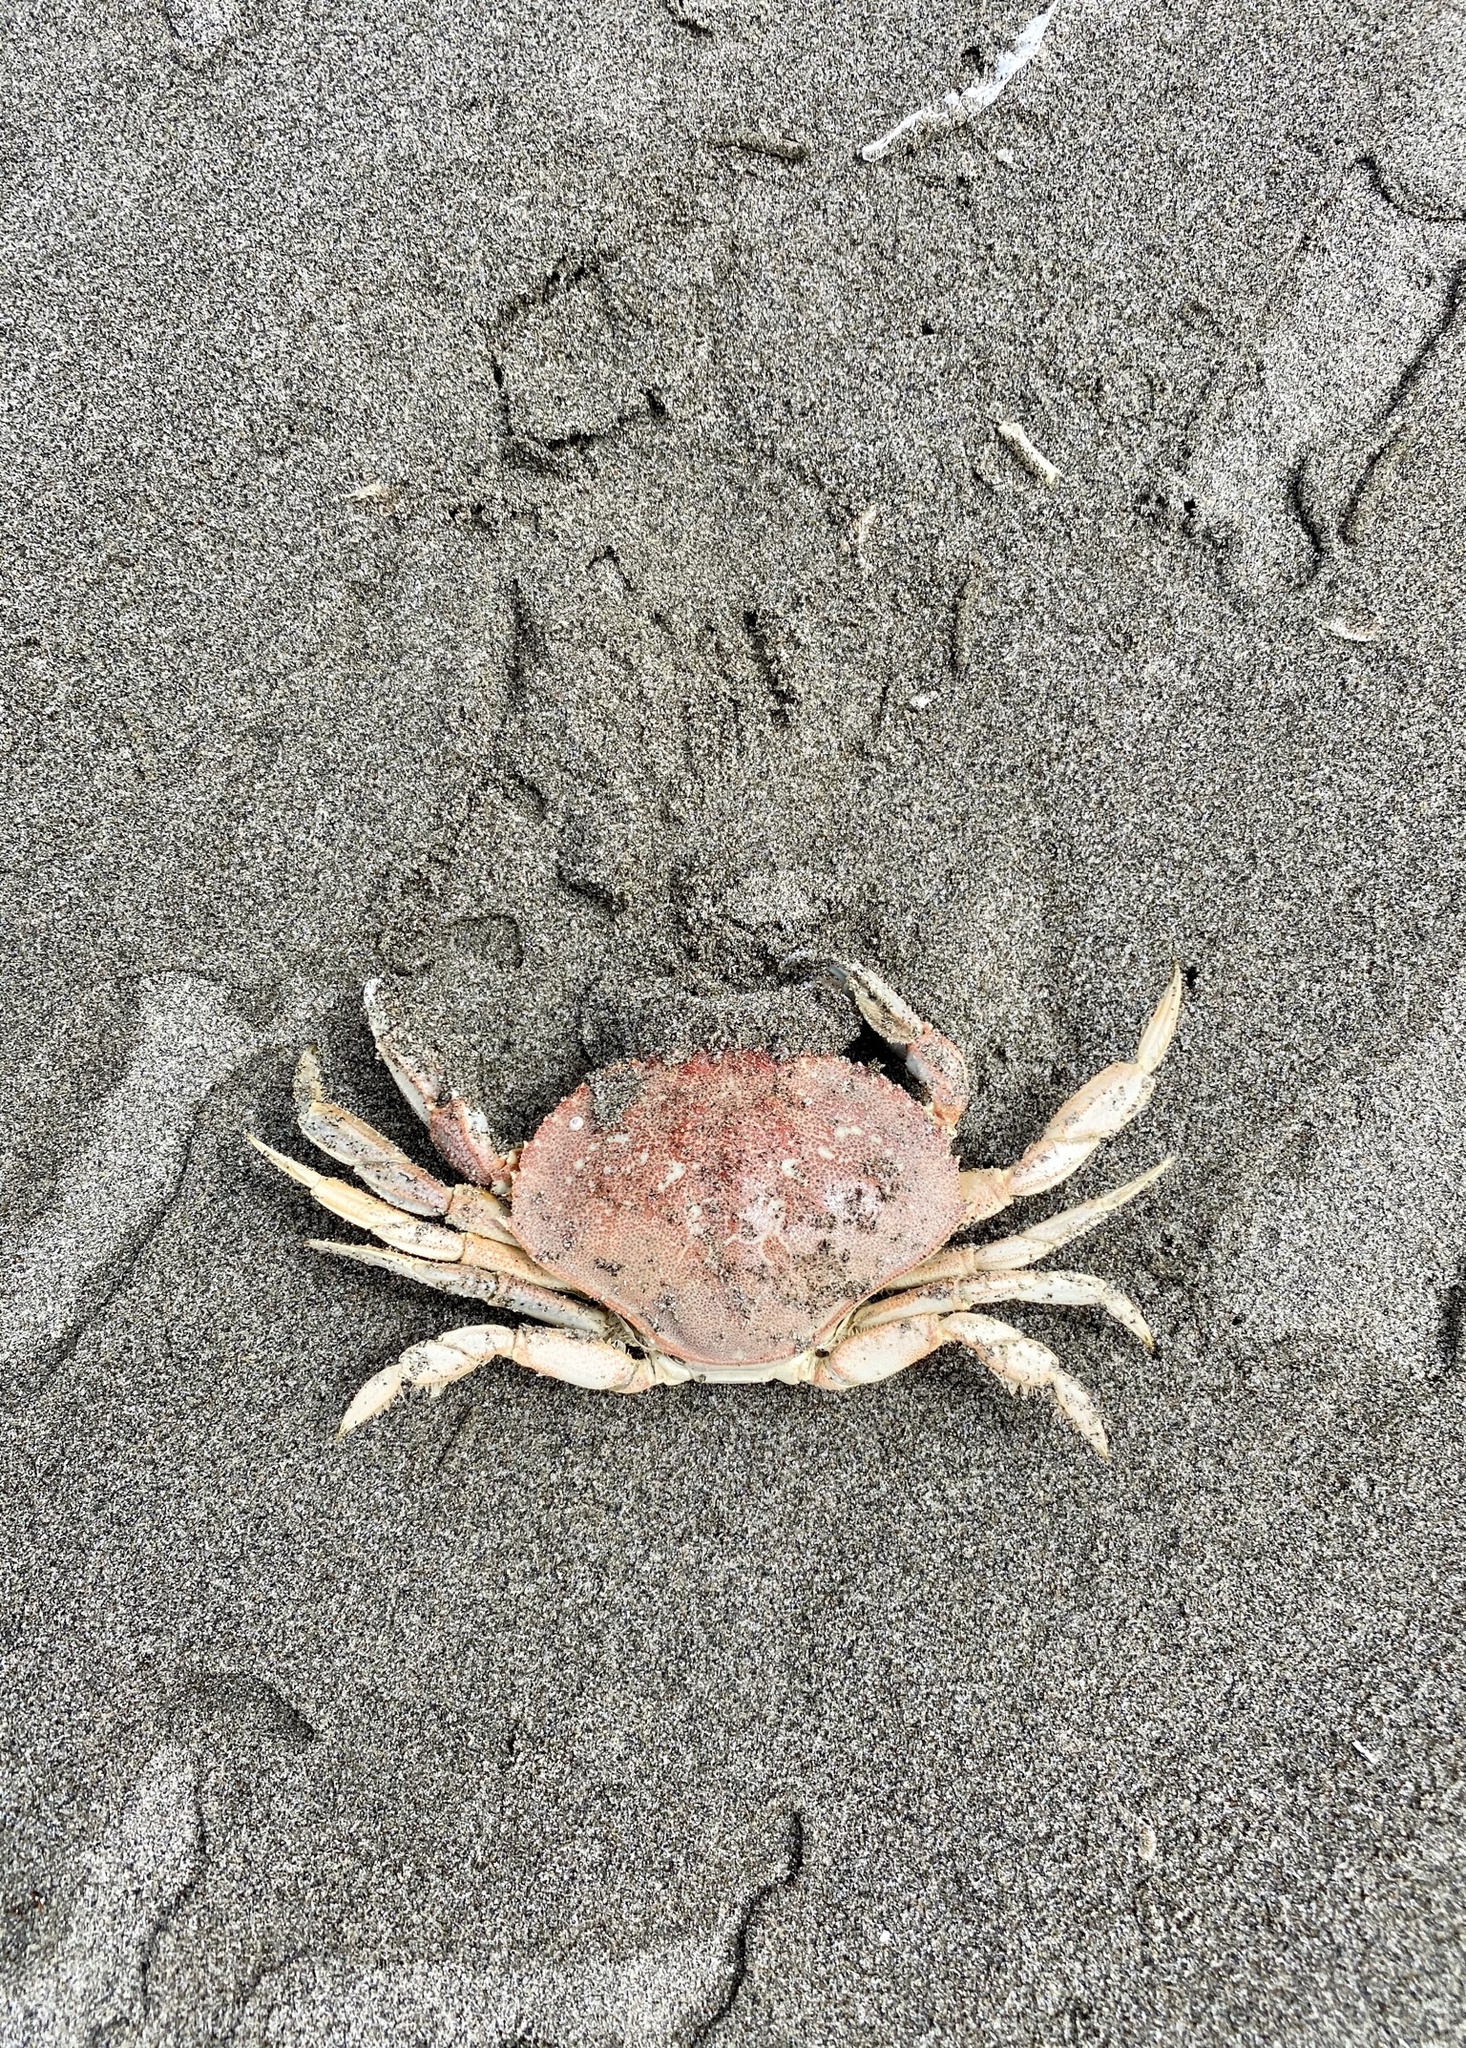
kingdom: Animalia
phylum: Arthropoda
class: Malacostraca
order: Decapoda
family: Cancridae
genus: Metacarcinus
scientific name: Metacarcinus magister
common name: Californian crab
